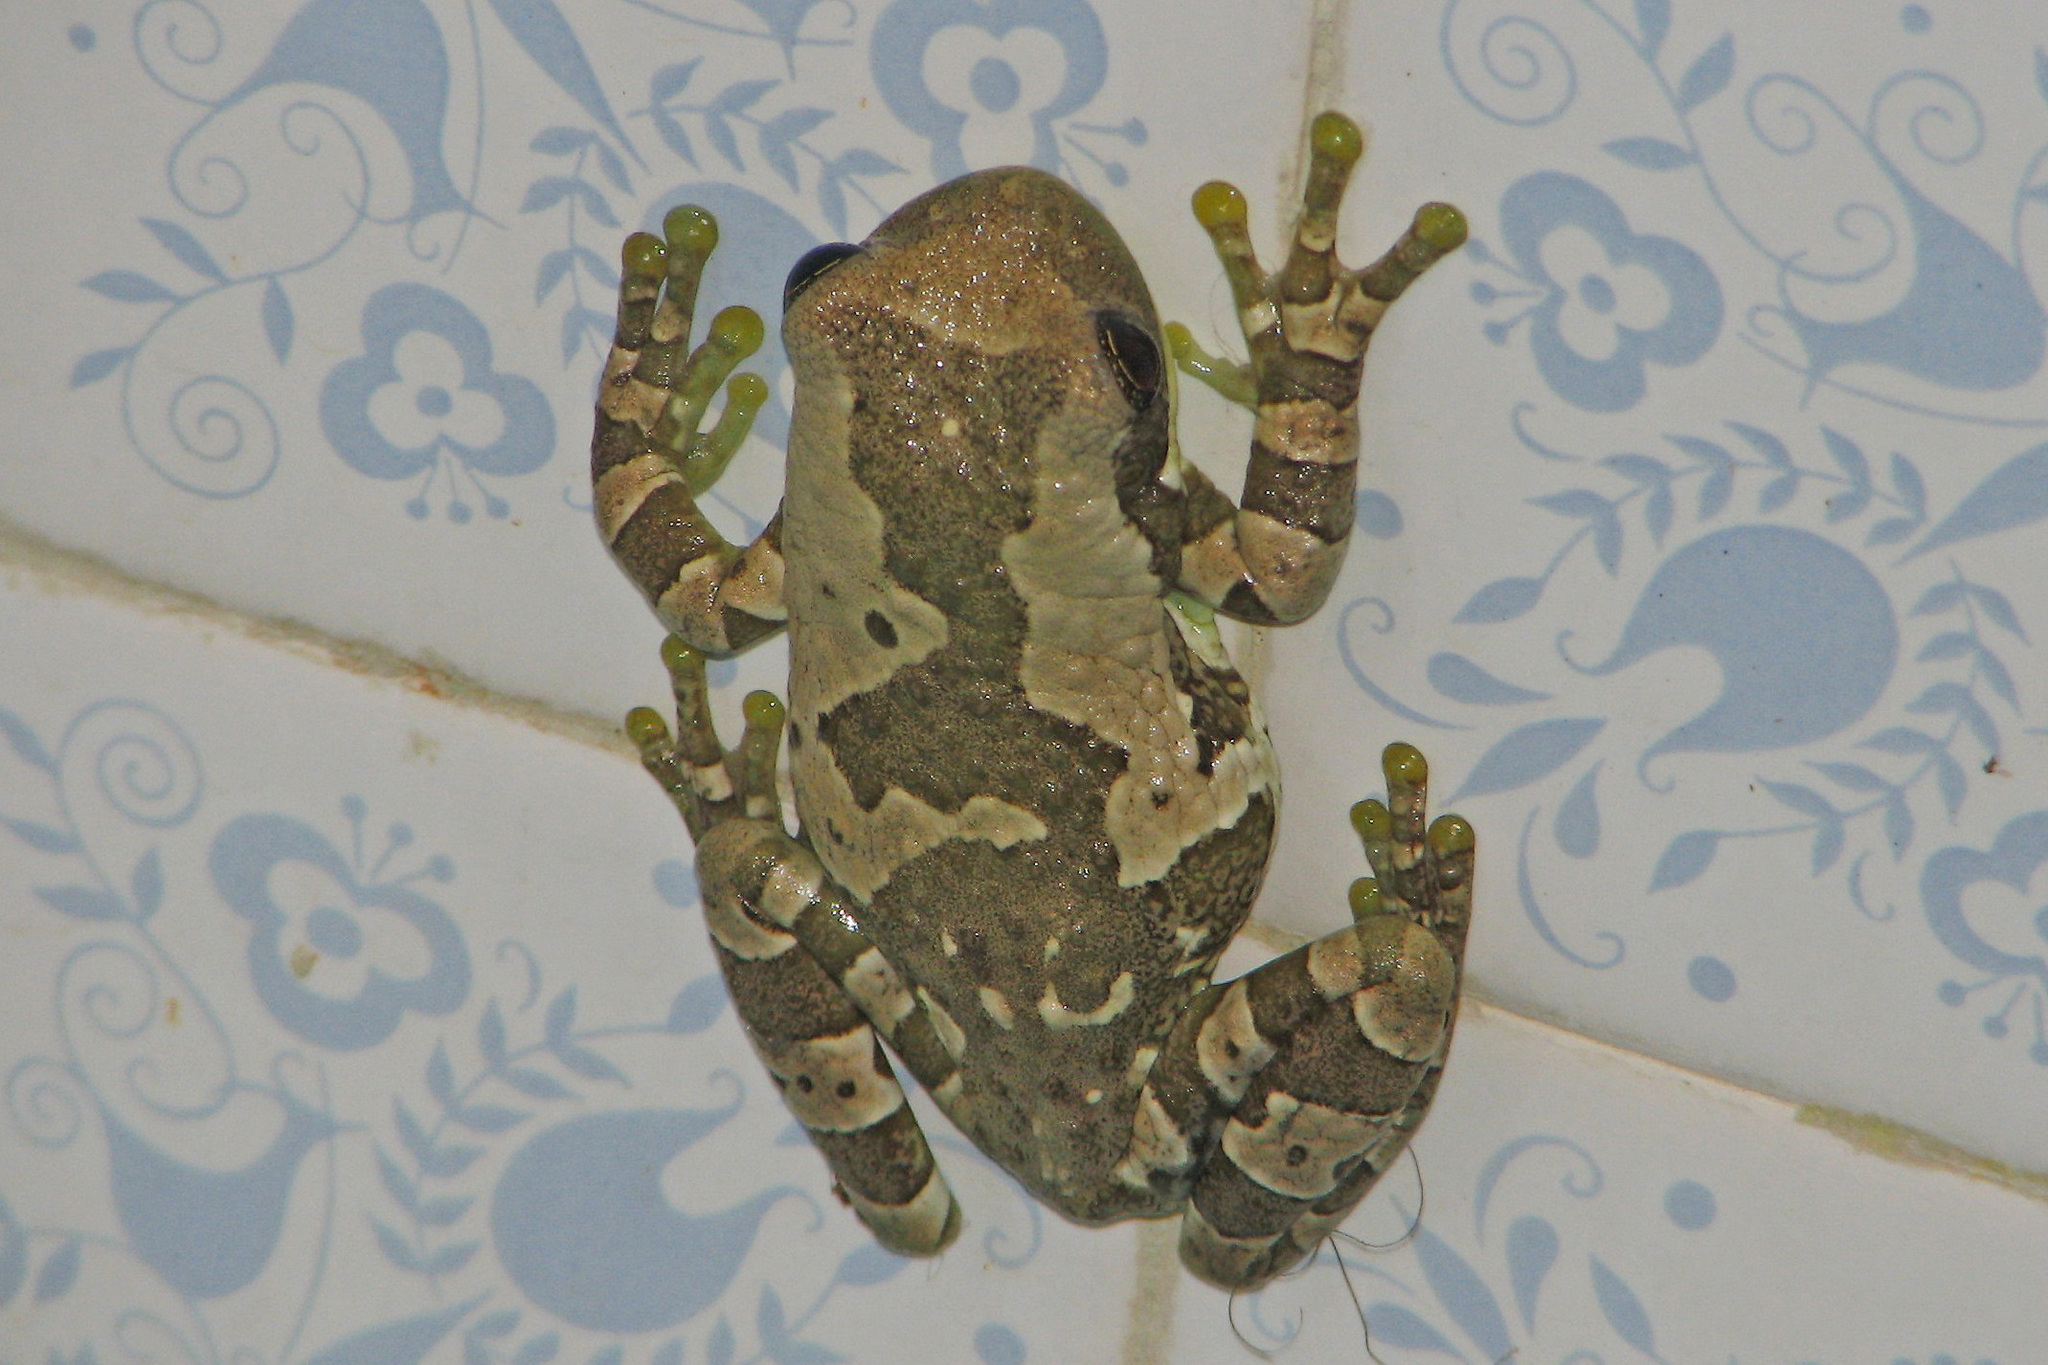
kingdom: Animalia
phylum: Chordata
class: Amphibia
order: Anura
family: Hylidae
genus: Trachycephalus
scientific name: Trachycephalus typhonius
